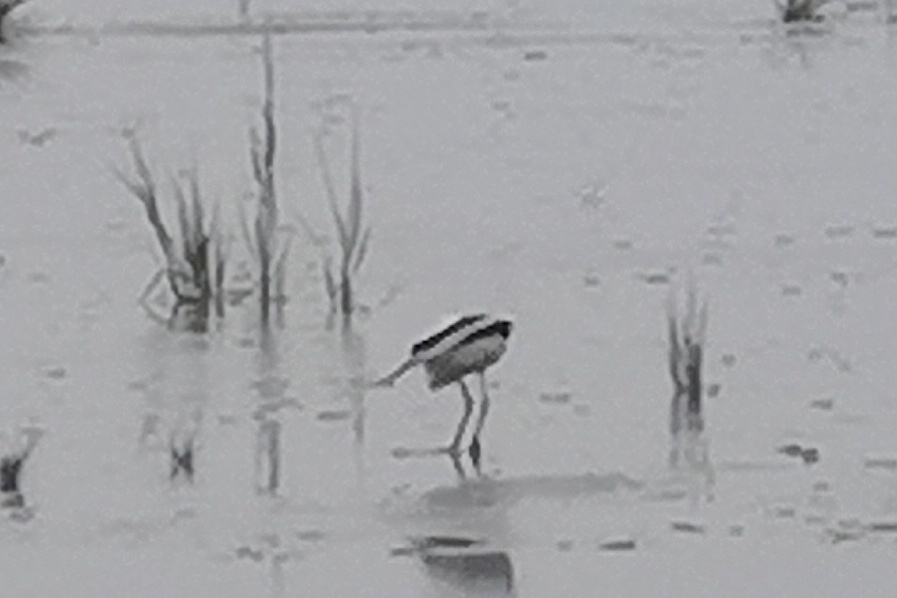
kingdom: Animalia
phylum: Chordata
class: Aves
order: Charadriiformes
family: Recurvirostridae
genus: Recurvirostra
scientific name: Recurvirostra avosetta
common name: Pied avocet
